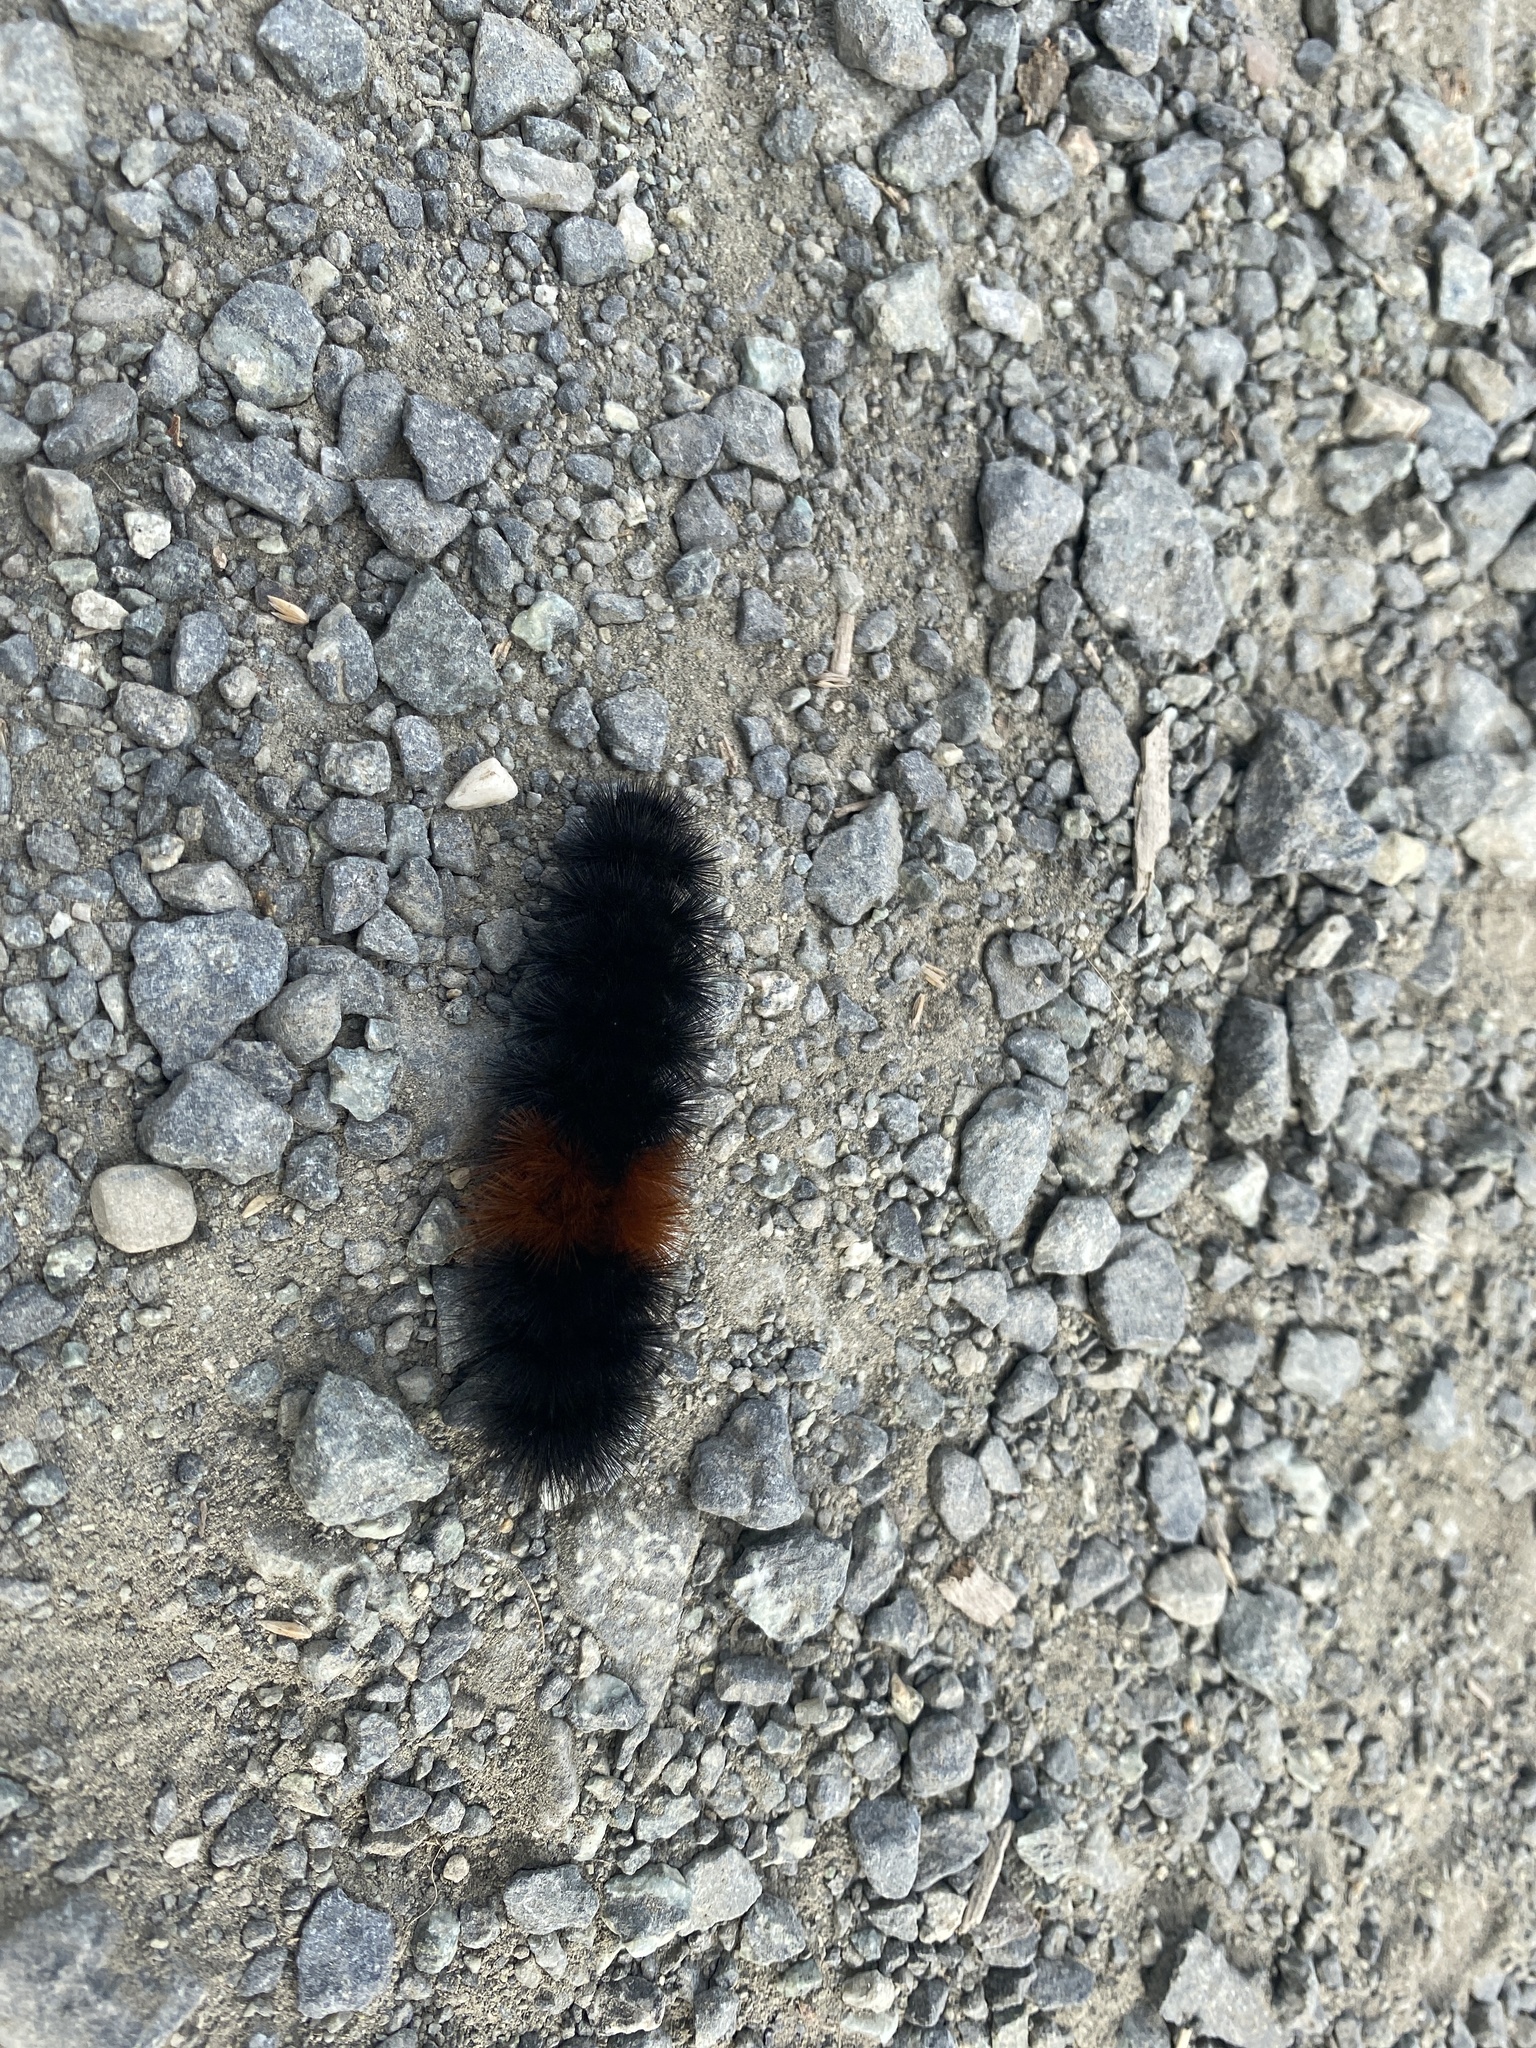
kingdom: Animalia
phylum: Arthropoda
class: Insecta
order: Lepidoptera
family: Erebidae
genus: Pyrrharctia
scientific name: Pyrrharctia isabella
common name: Isabella tiger moth
